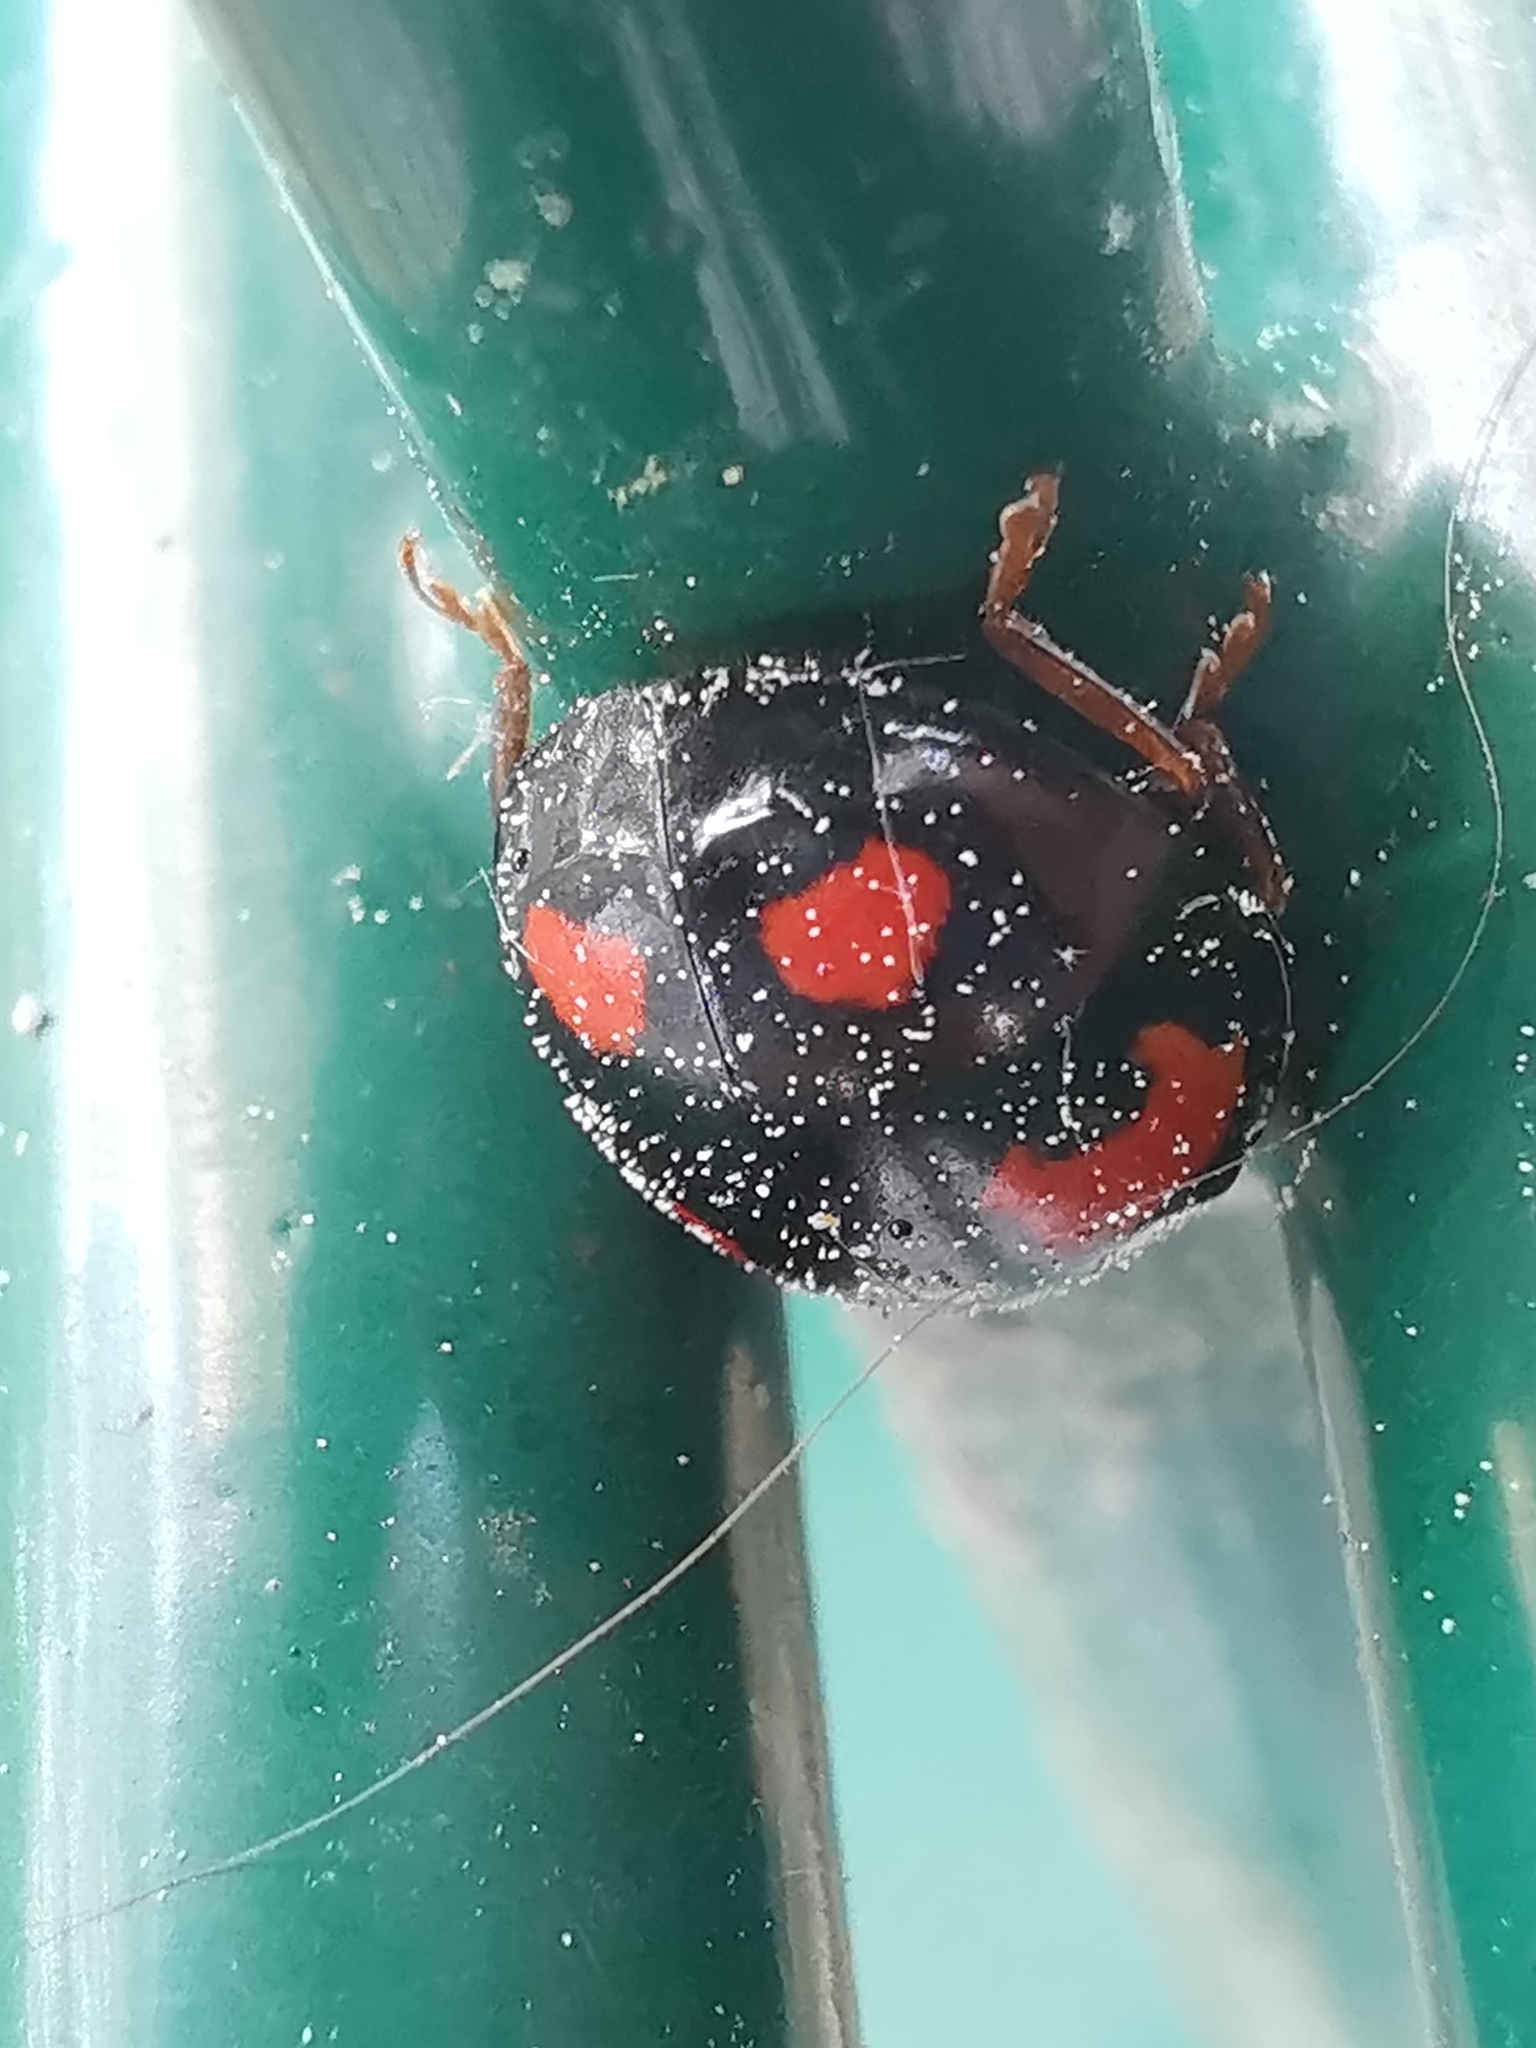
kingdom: Animalia
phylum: Arthropoda
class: Insecta
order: Coleoptera
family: Coccinellidae
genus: Harmonia
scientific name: Harmonia axyridis
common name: Harlequin ladybird
